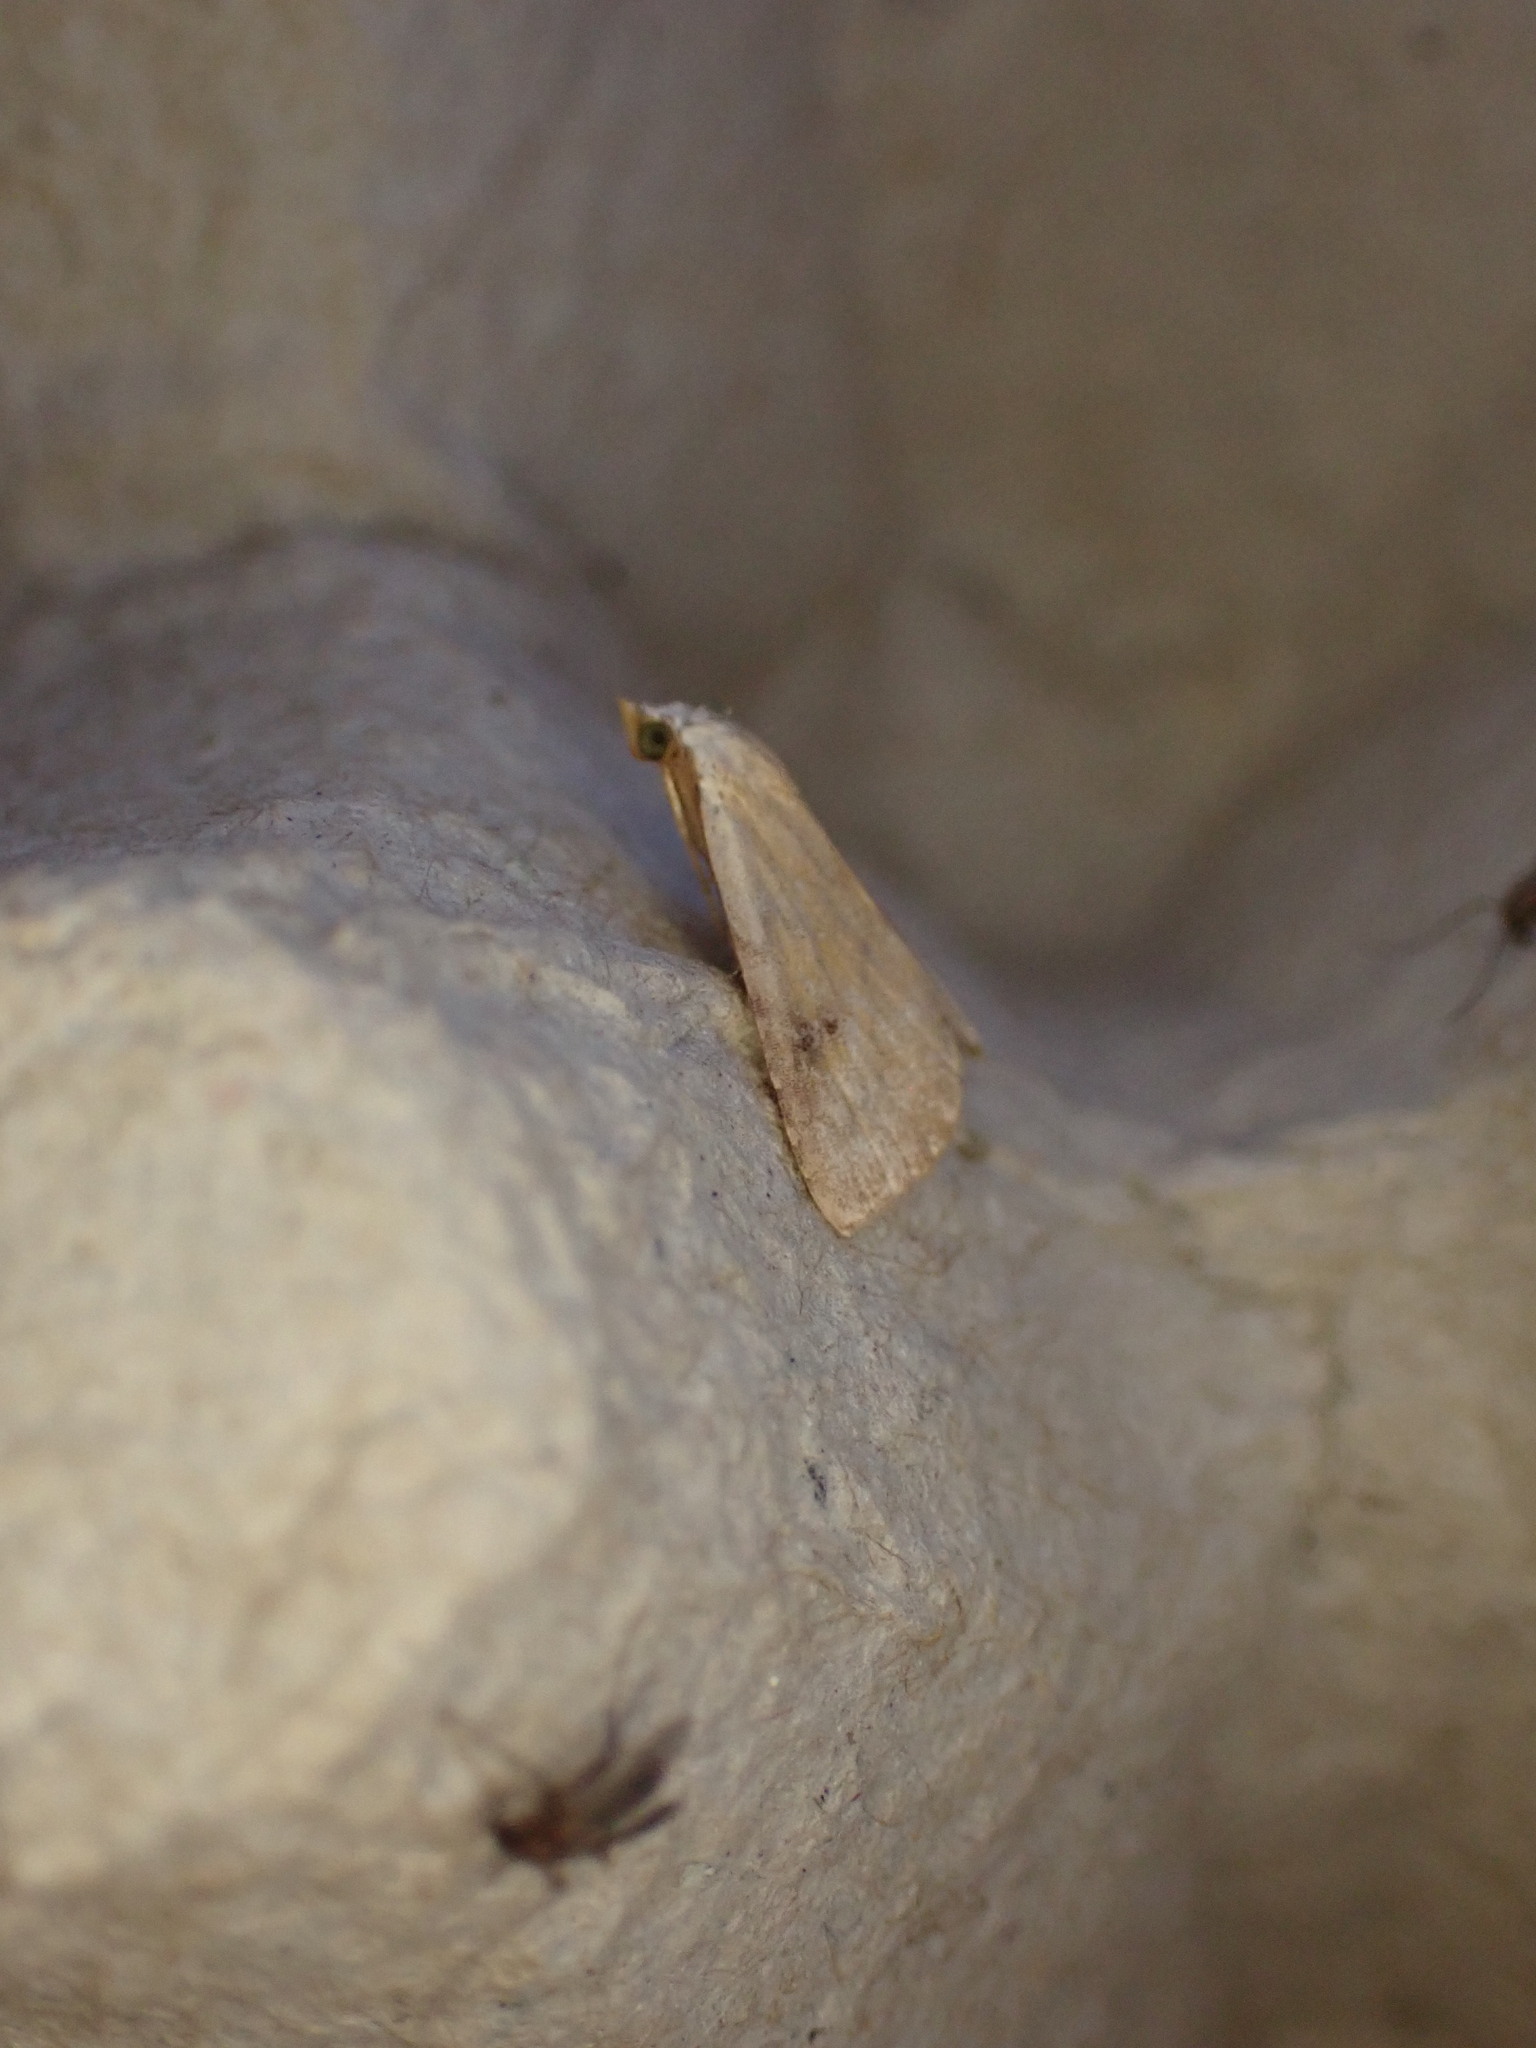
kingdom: Animalia
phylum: Arthropoda
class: Insecta
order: Lepidoptera
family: Erebidae
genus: Rivula
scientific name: Rivula sericealis
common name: Straw dot
